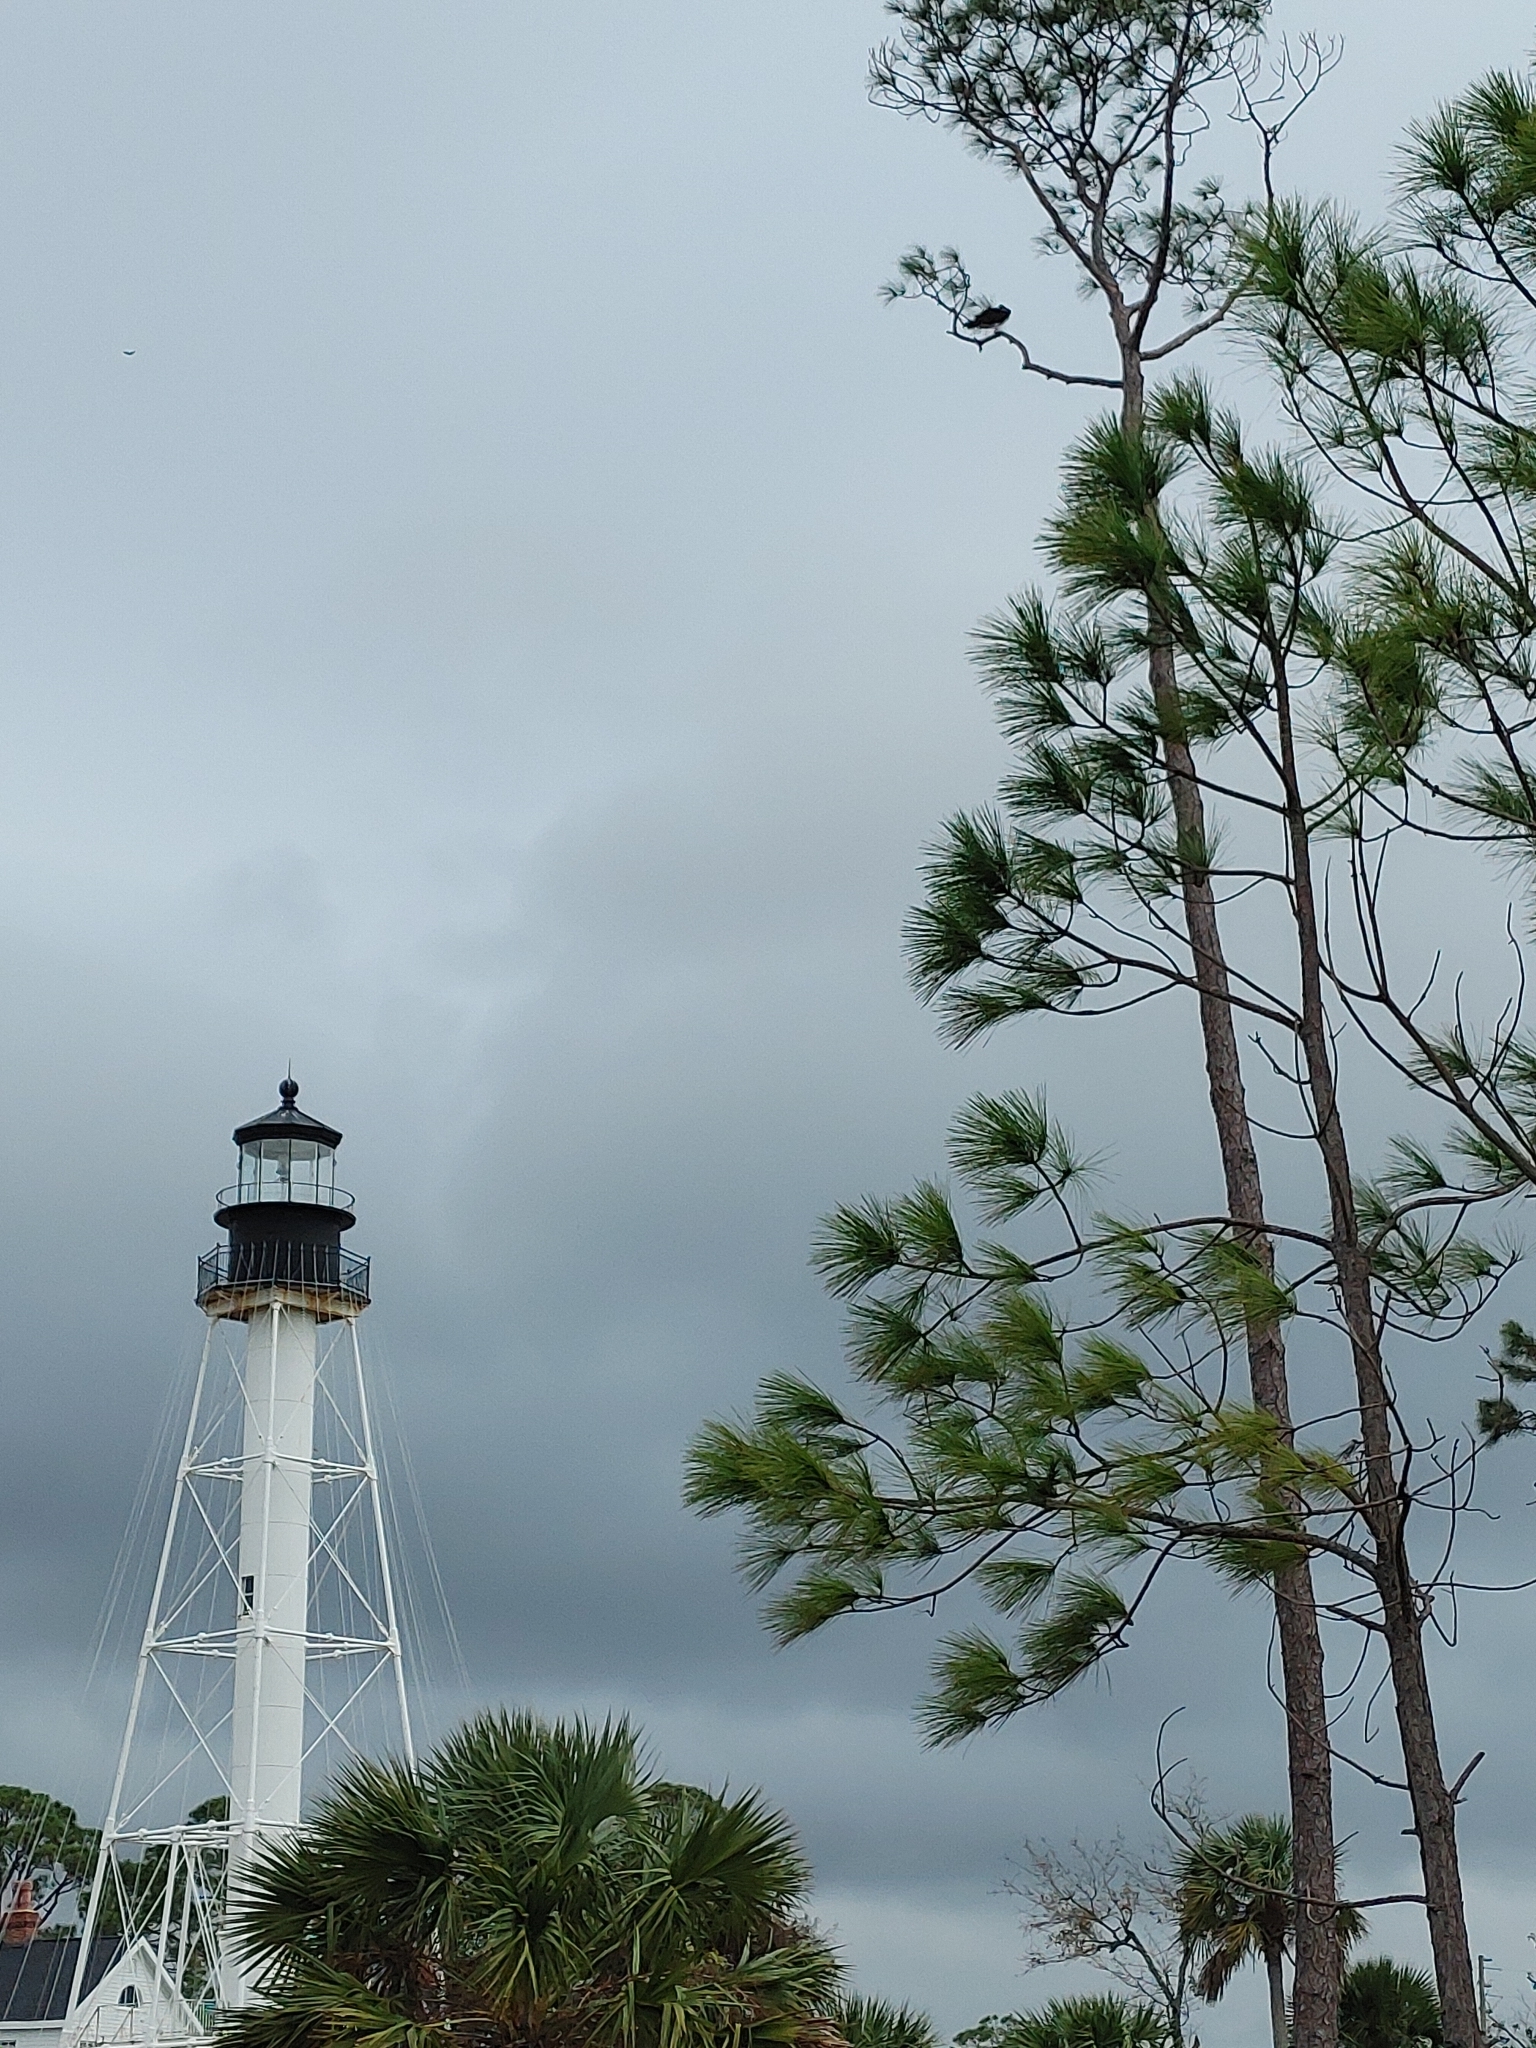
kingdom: Plantae
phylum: Tracheophyta
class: Pinopsida
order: Pinales
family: Pinaceae
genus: Pinus
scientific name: Pinus elliottii
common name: Slash pine
